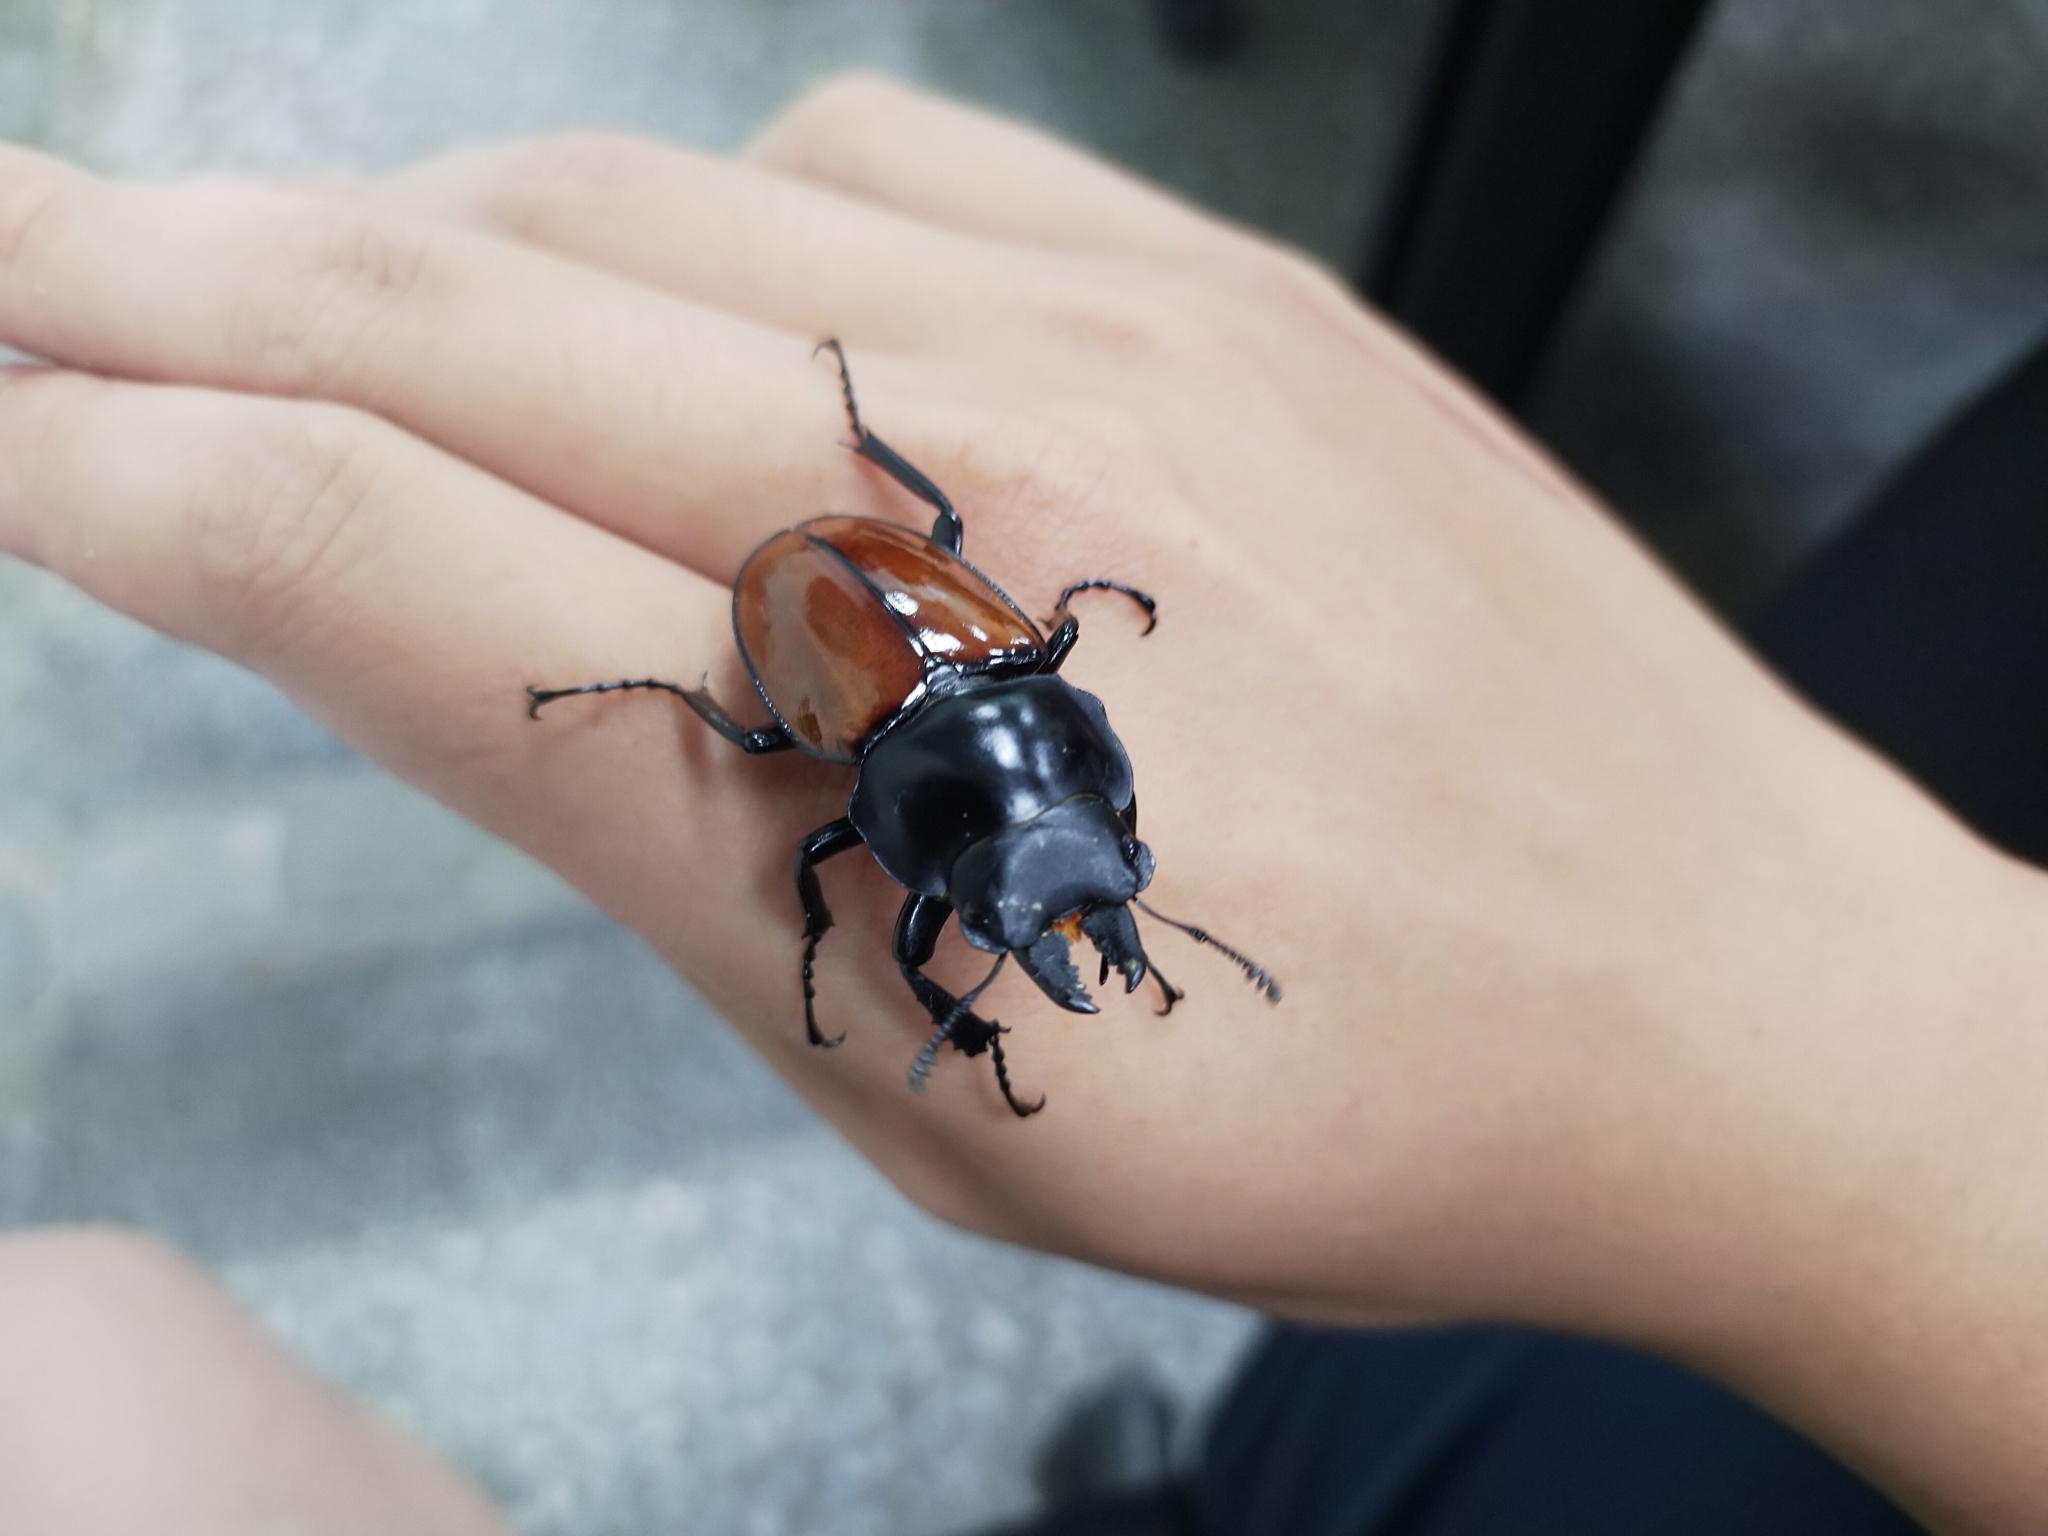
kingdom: Animalia
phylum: Arthropoda
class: Insecta
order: Coleoptera
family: Lucanidae
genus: Neolucanus
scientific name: Neolucanus swinhoei
